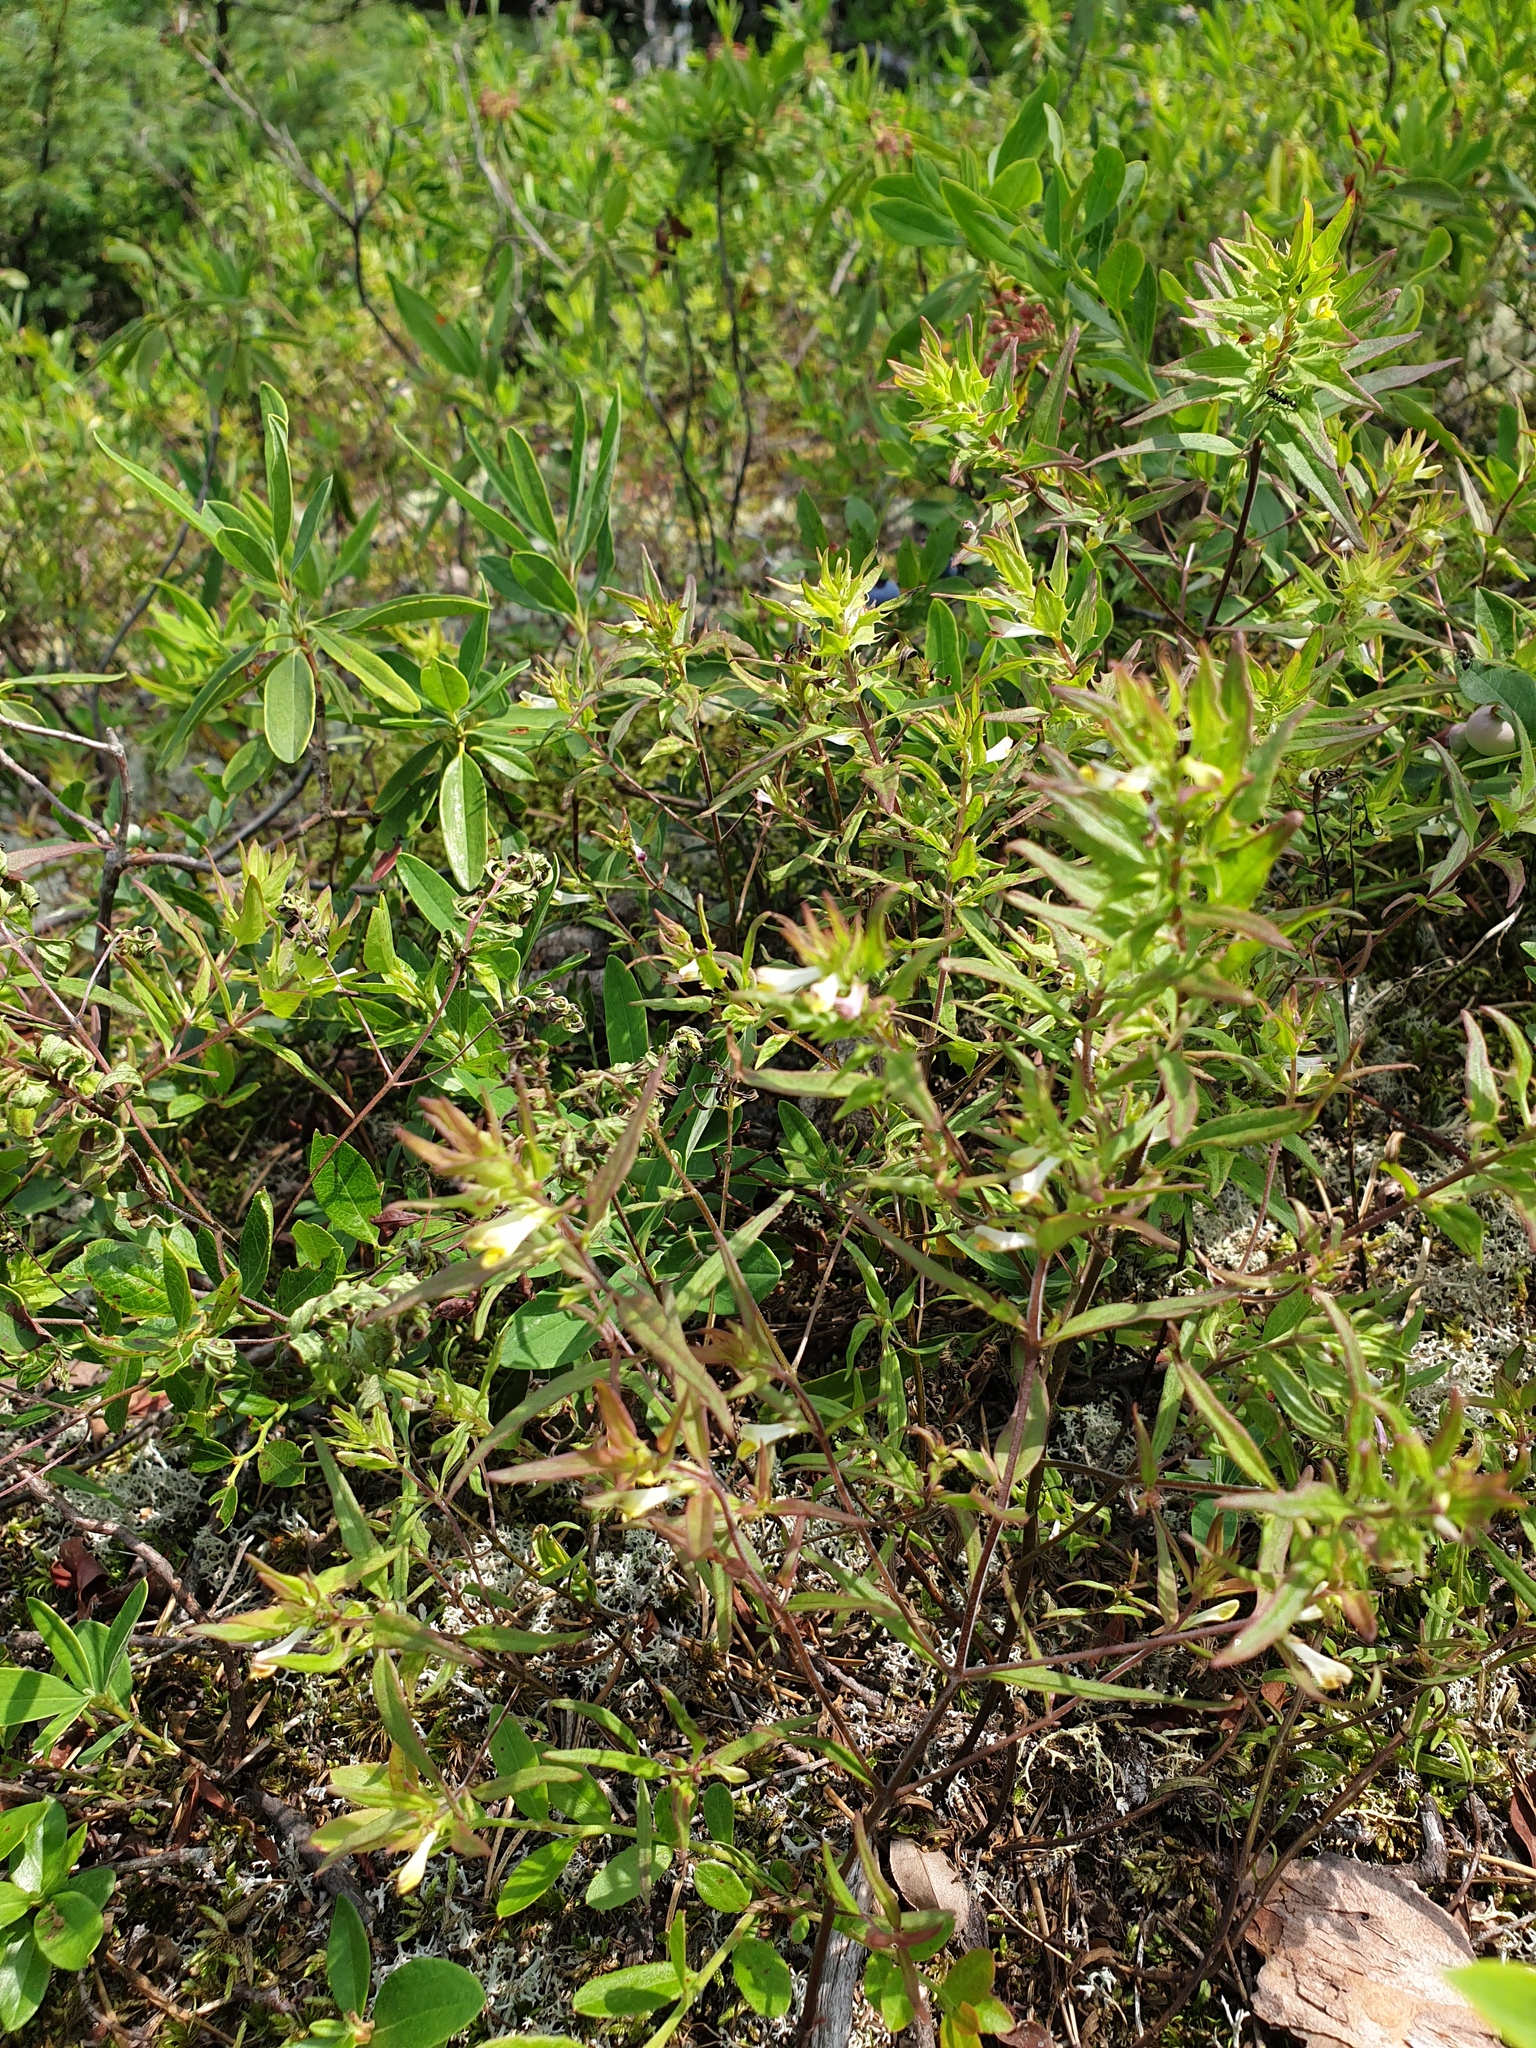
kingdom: Plantae
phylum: Tracheophyta
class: Magnoliopsida
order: Lamiales
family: Orobanchaceae
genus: Melampyrum
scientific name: Melampyrum lineare
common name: American cow-wheat
